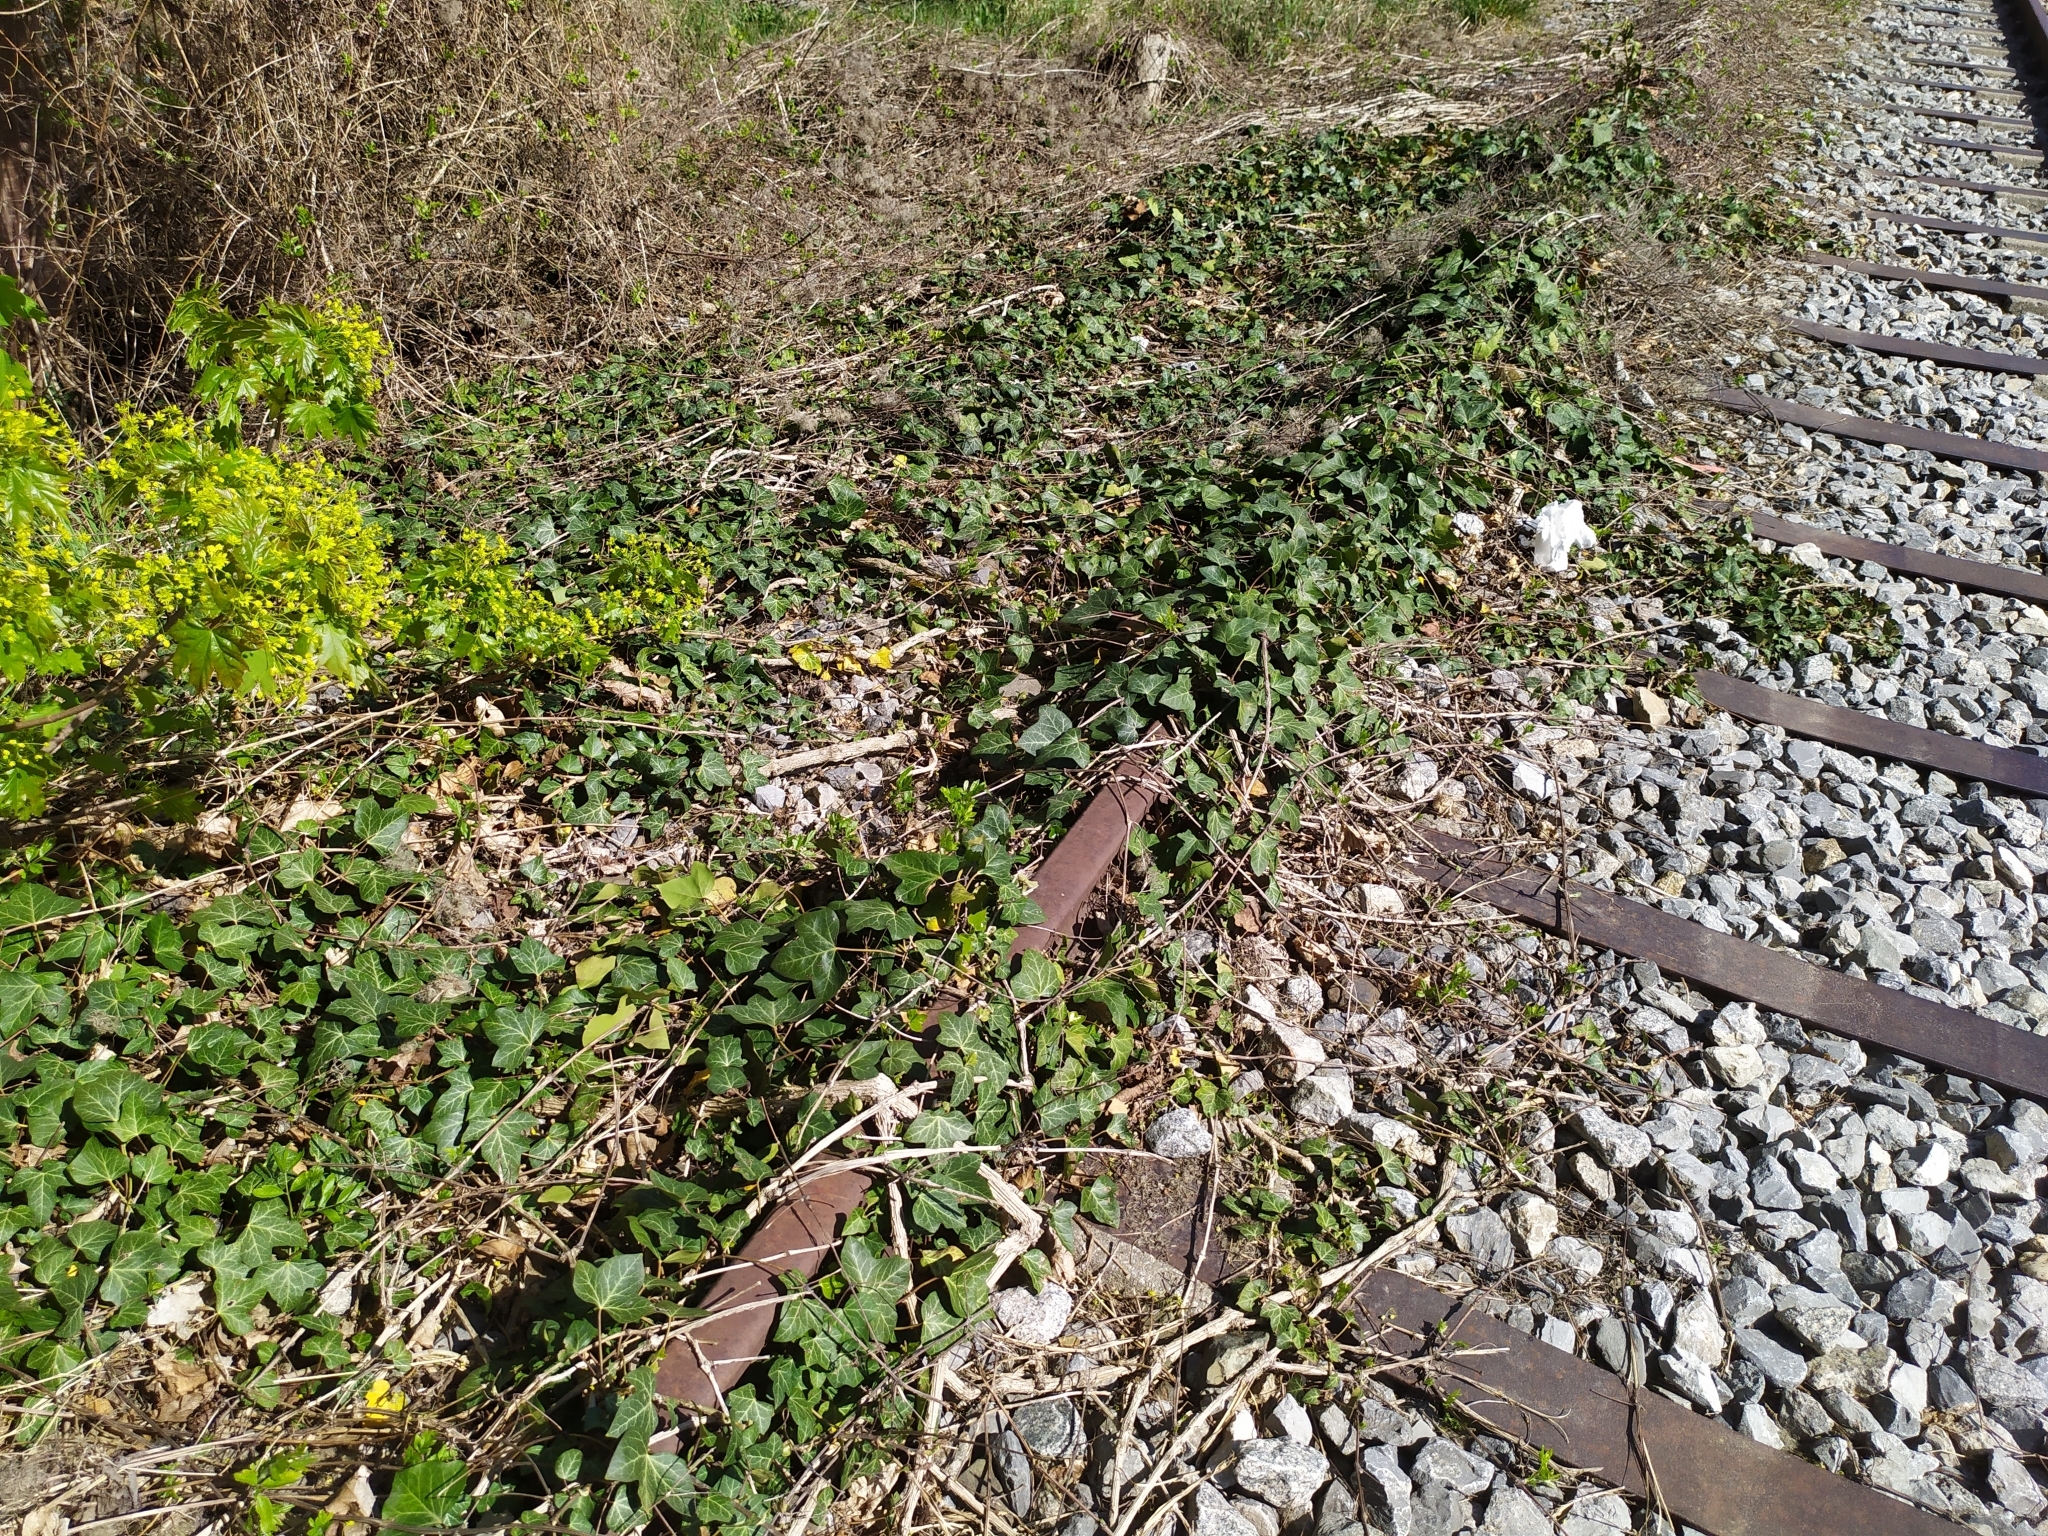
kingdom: Plantae
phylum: Tracheophyta
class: Magnoliopsida
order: Apiales
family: Araliaceae
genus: Hedera
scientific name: Hedera helix
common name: Ivy
